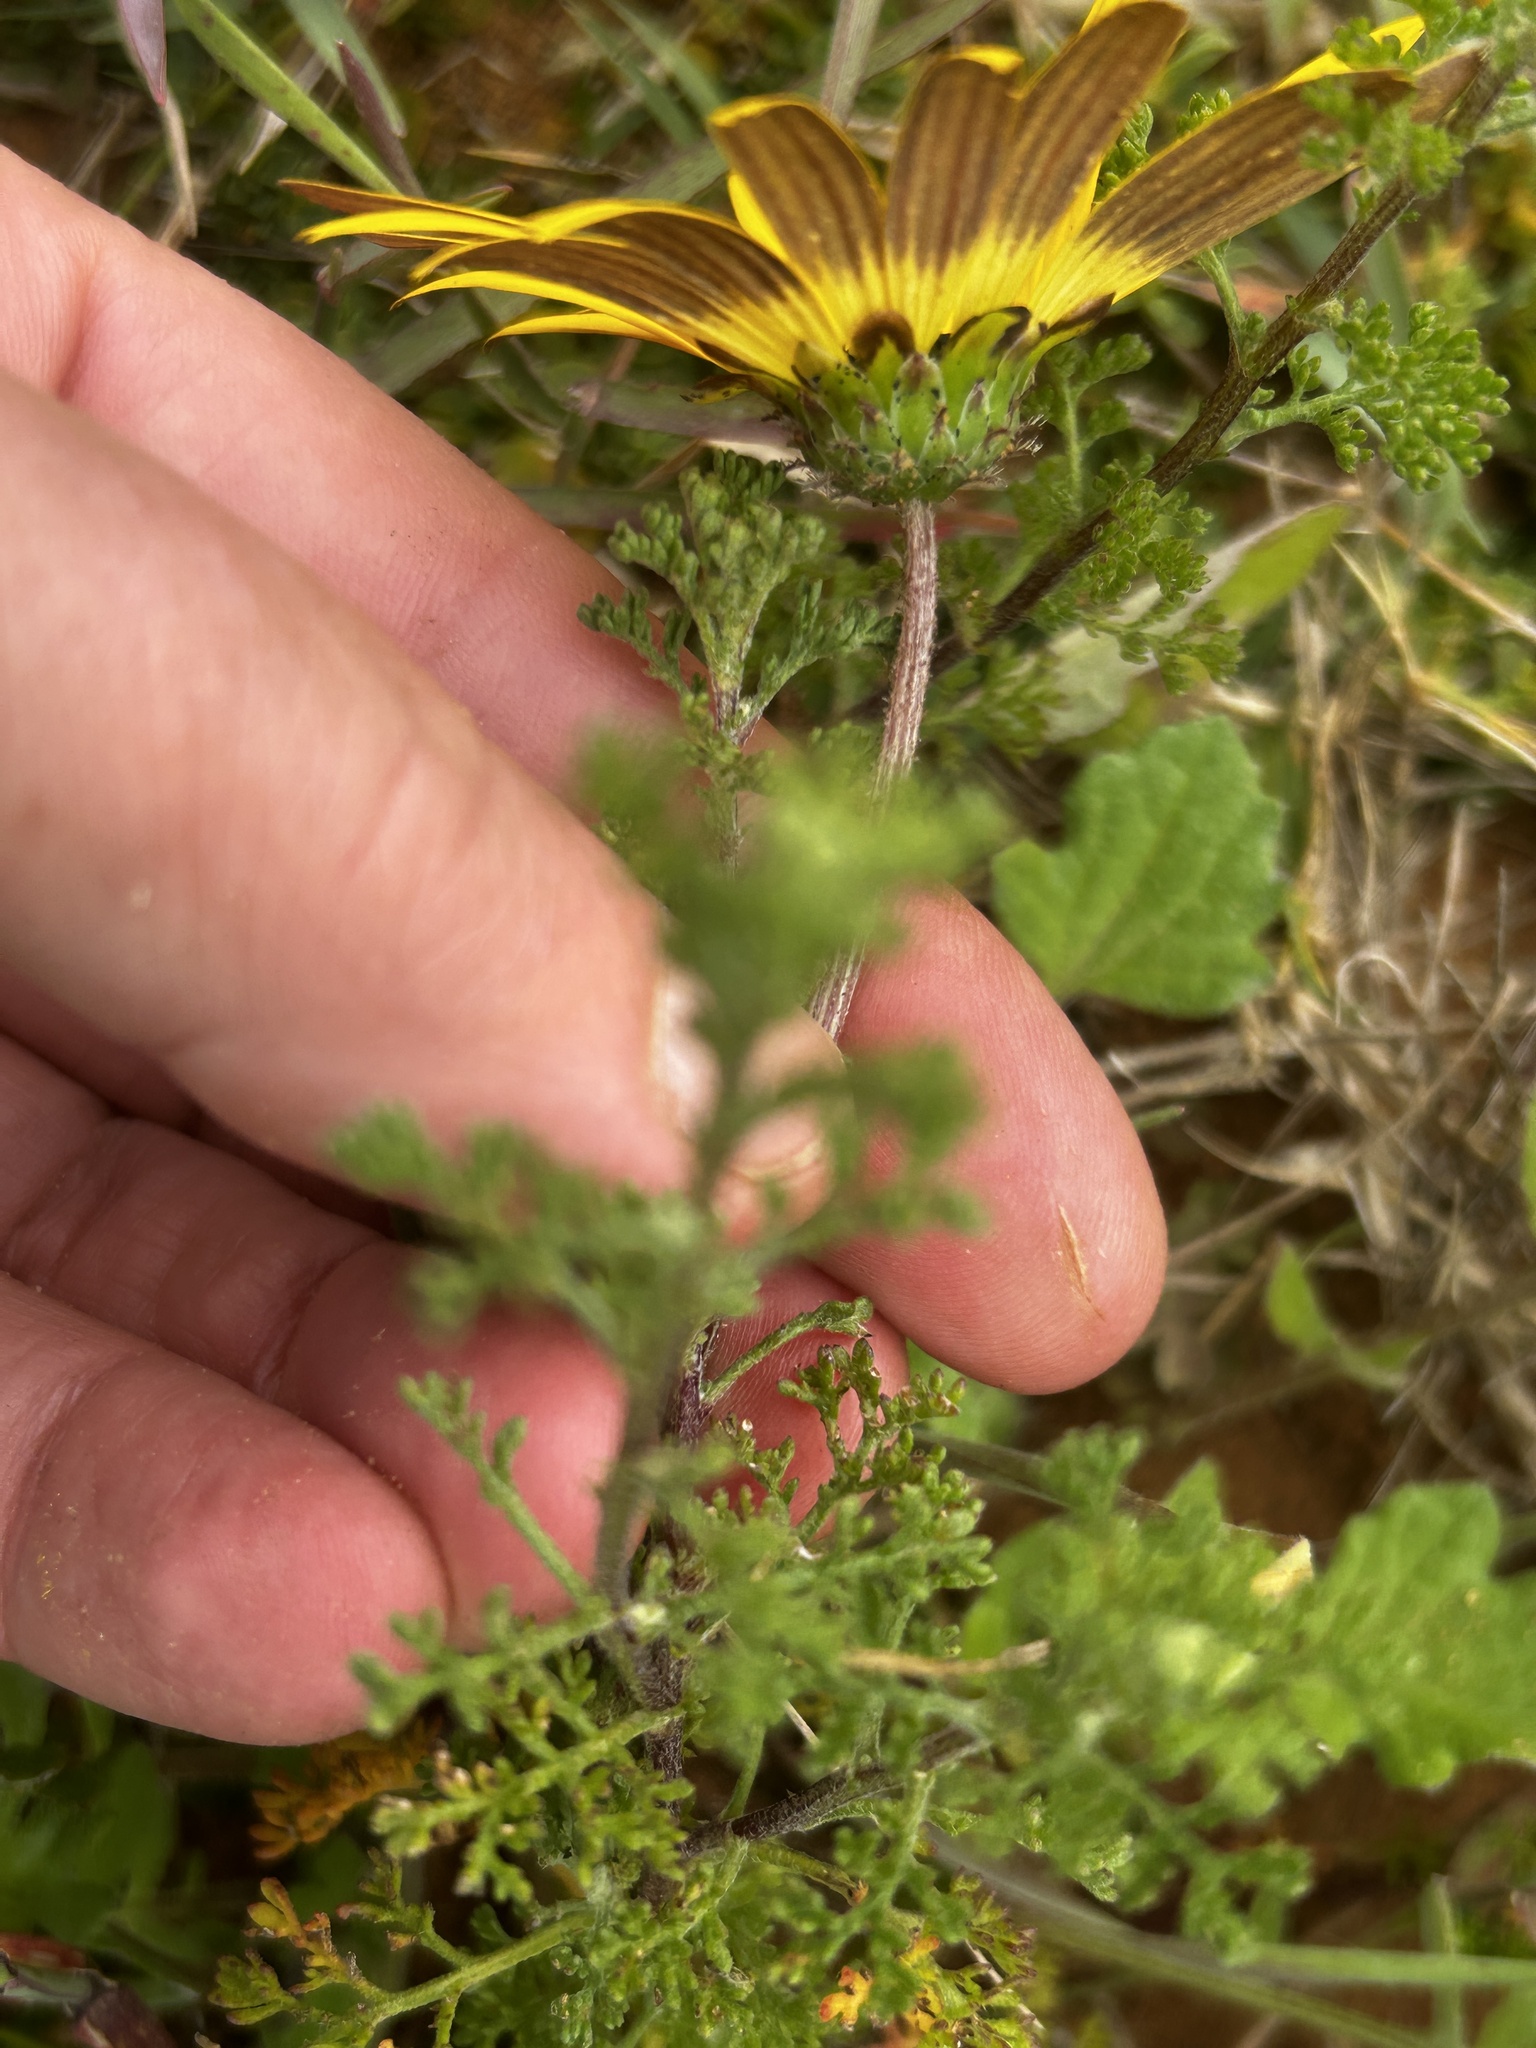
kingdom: Plantae
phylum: Tracheophyta
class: Magnoliopsida
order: Asterales
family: Asteraceae
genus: Ursinia
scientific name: Ursinia chrysanthemoides
